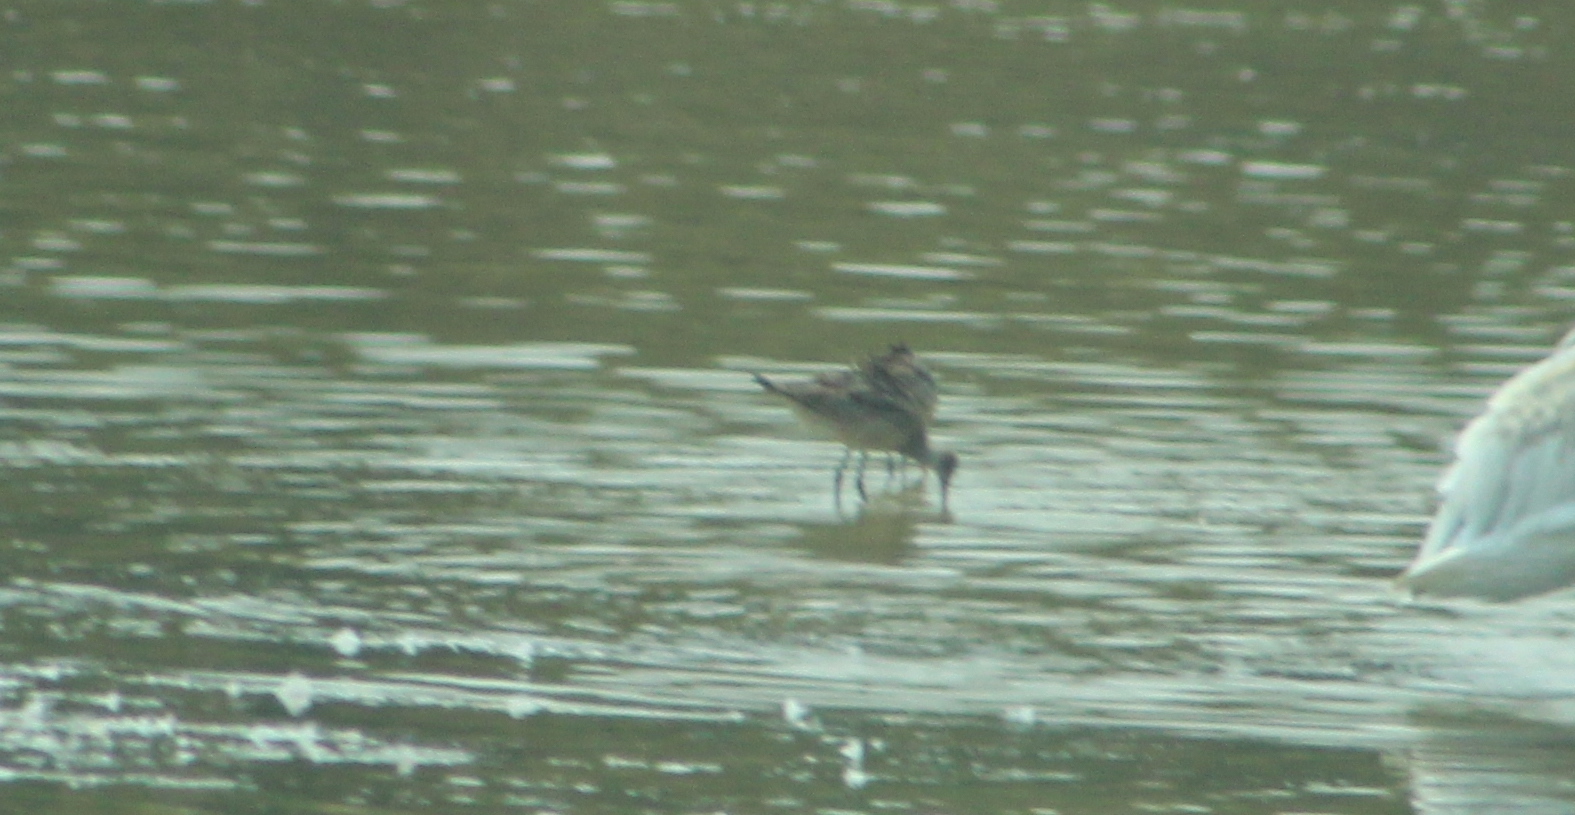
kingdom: Animalia
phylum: Chordata
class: Aves
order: Charadriiformes
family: Scolopacidae
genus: Limosa
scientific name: Limosa fedoa
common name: Marbled godwit
